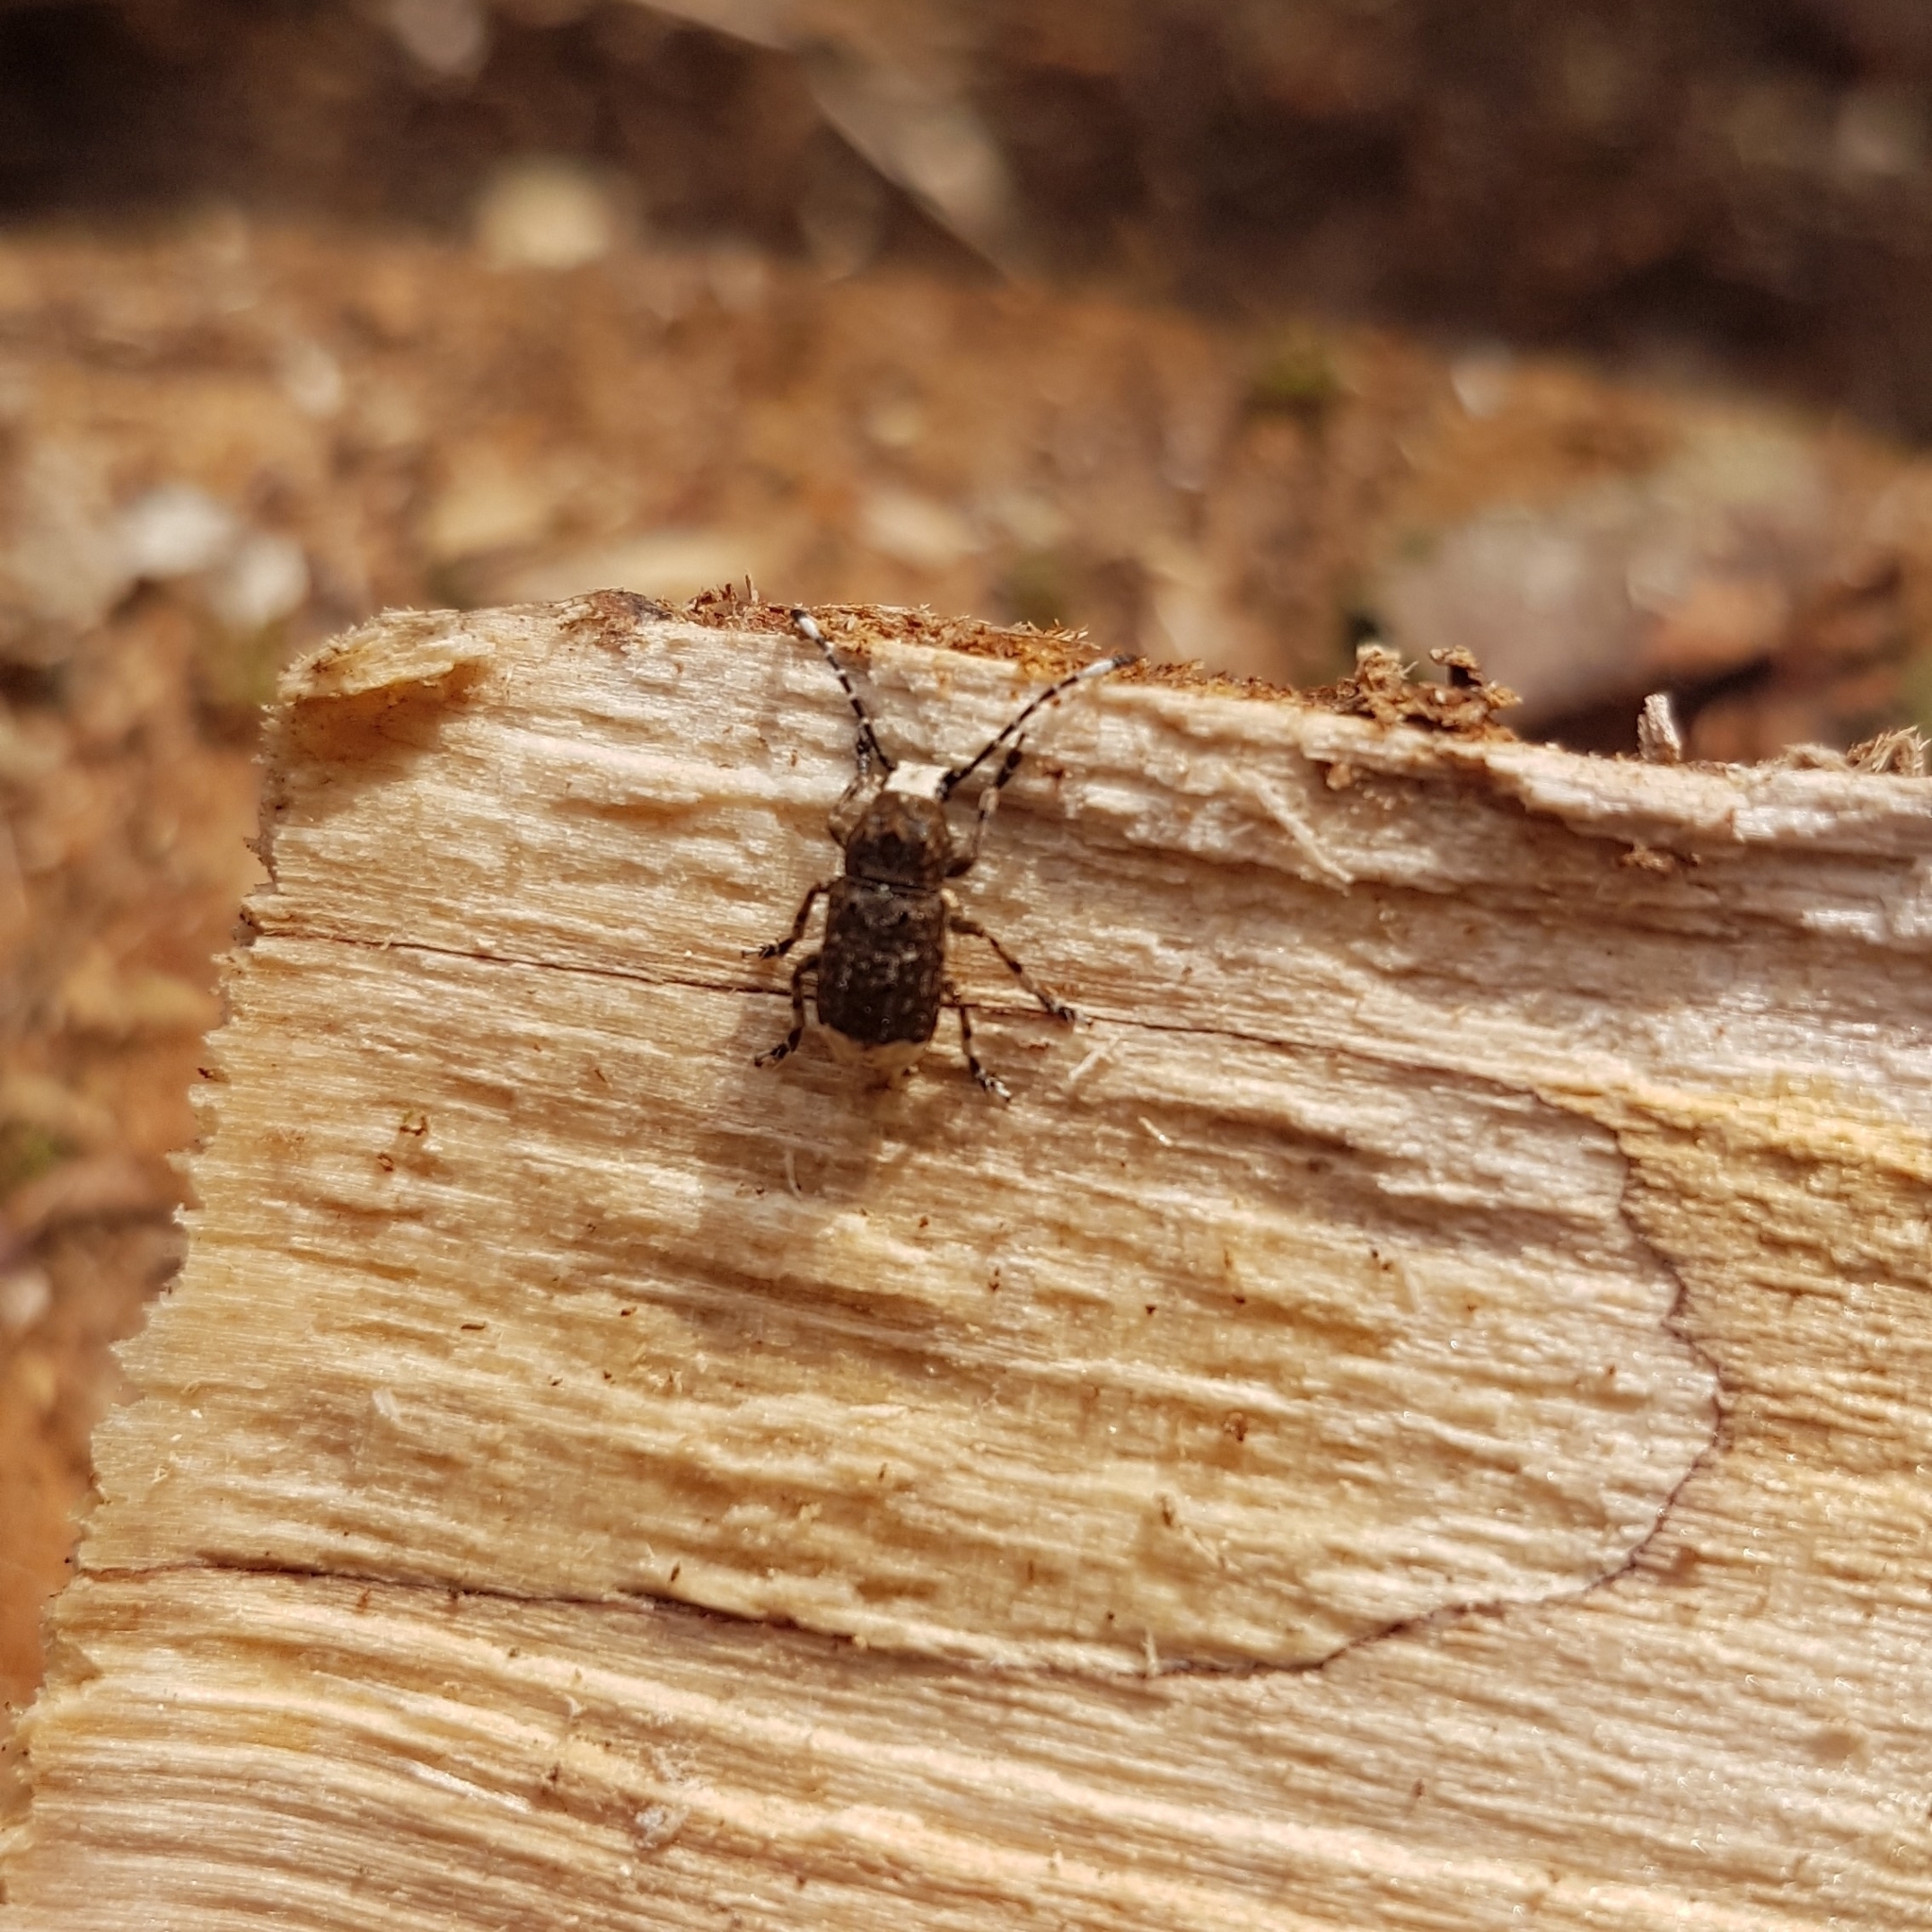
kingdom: Animalia
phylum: Arthropoda
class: Insecta
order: Coleoptera
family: Anthribidae
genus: Platystomos
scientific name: Platystomos albinus
